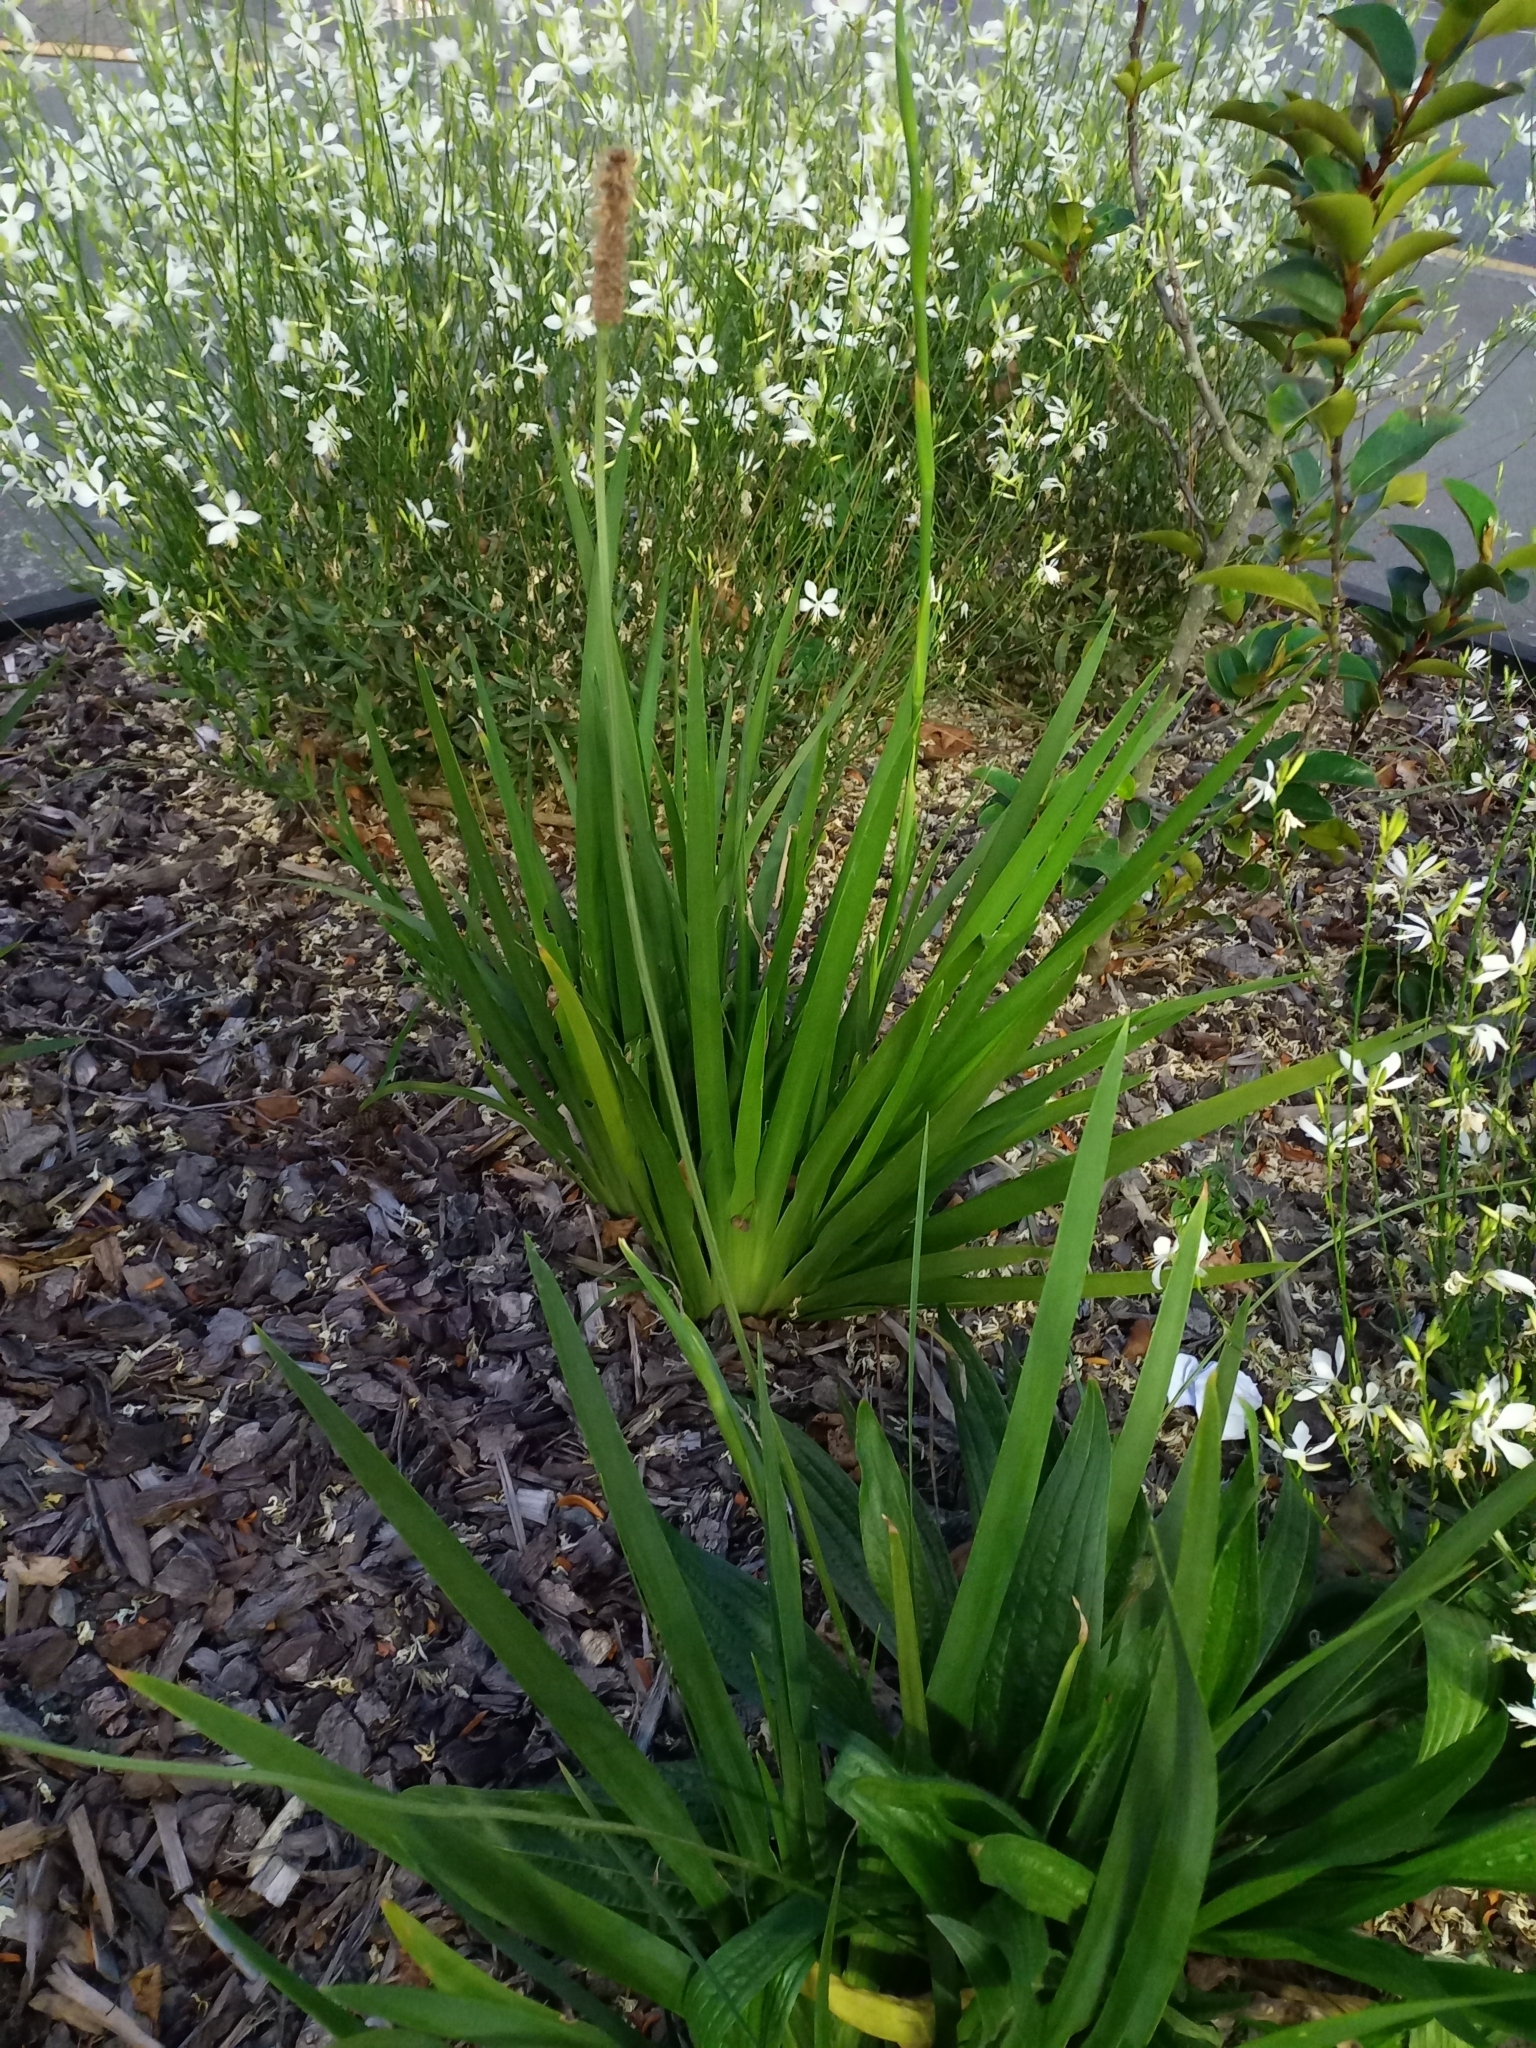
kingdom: Plantae
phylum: Tracheophyta
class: Magnoliopsida
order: Lamiales
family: Plantaginaceae
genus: Plantago
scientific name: Plantago lanceolata
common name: Ribwort plantain
